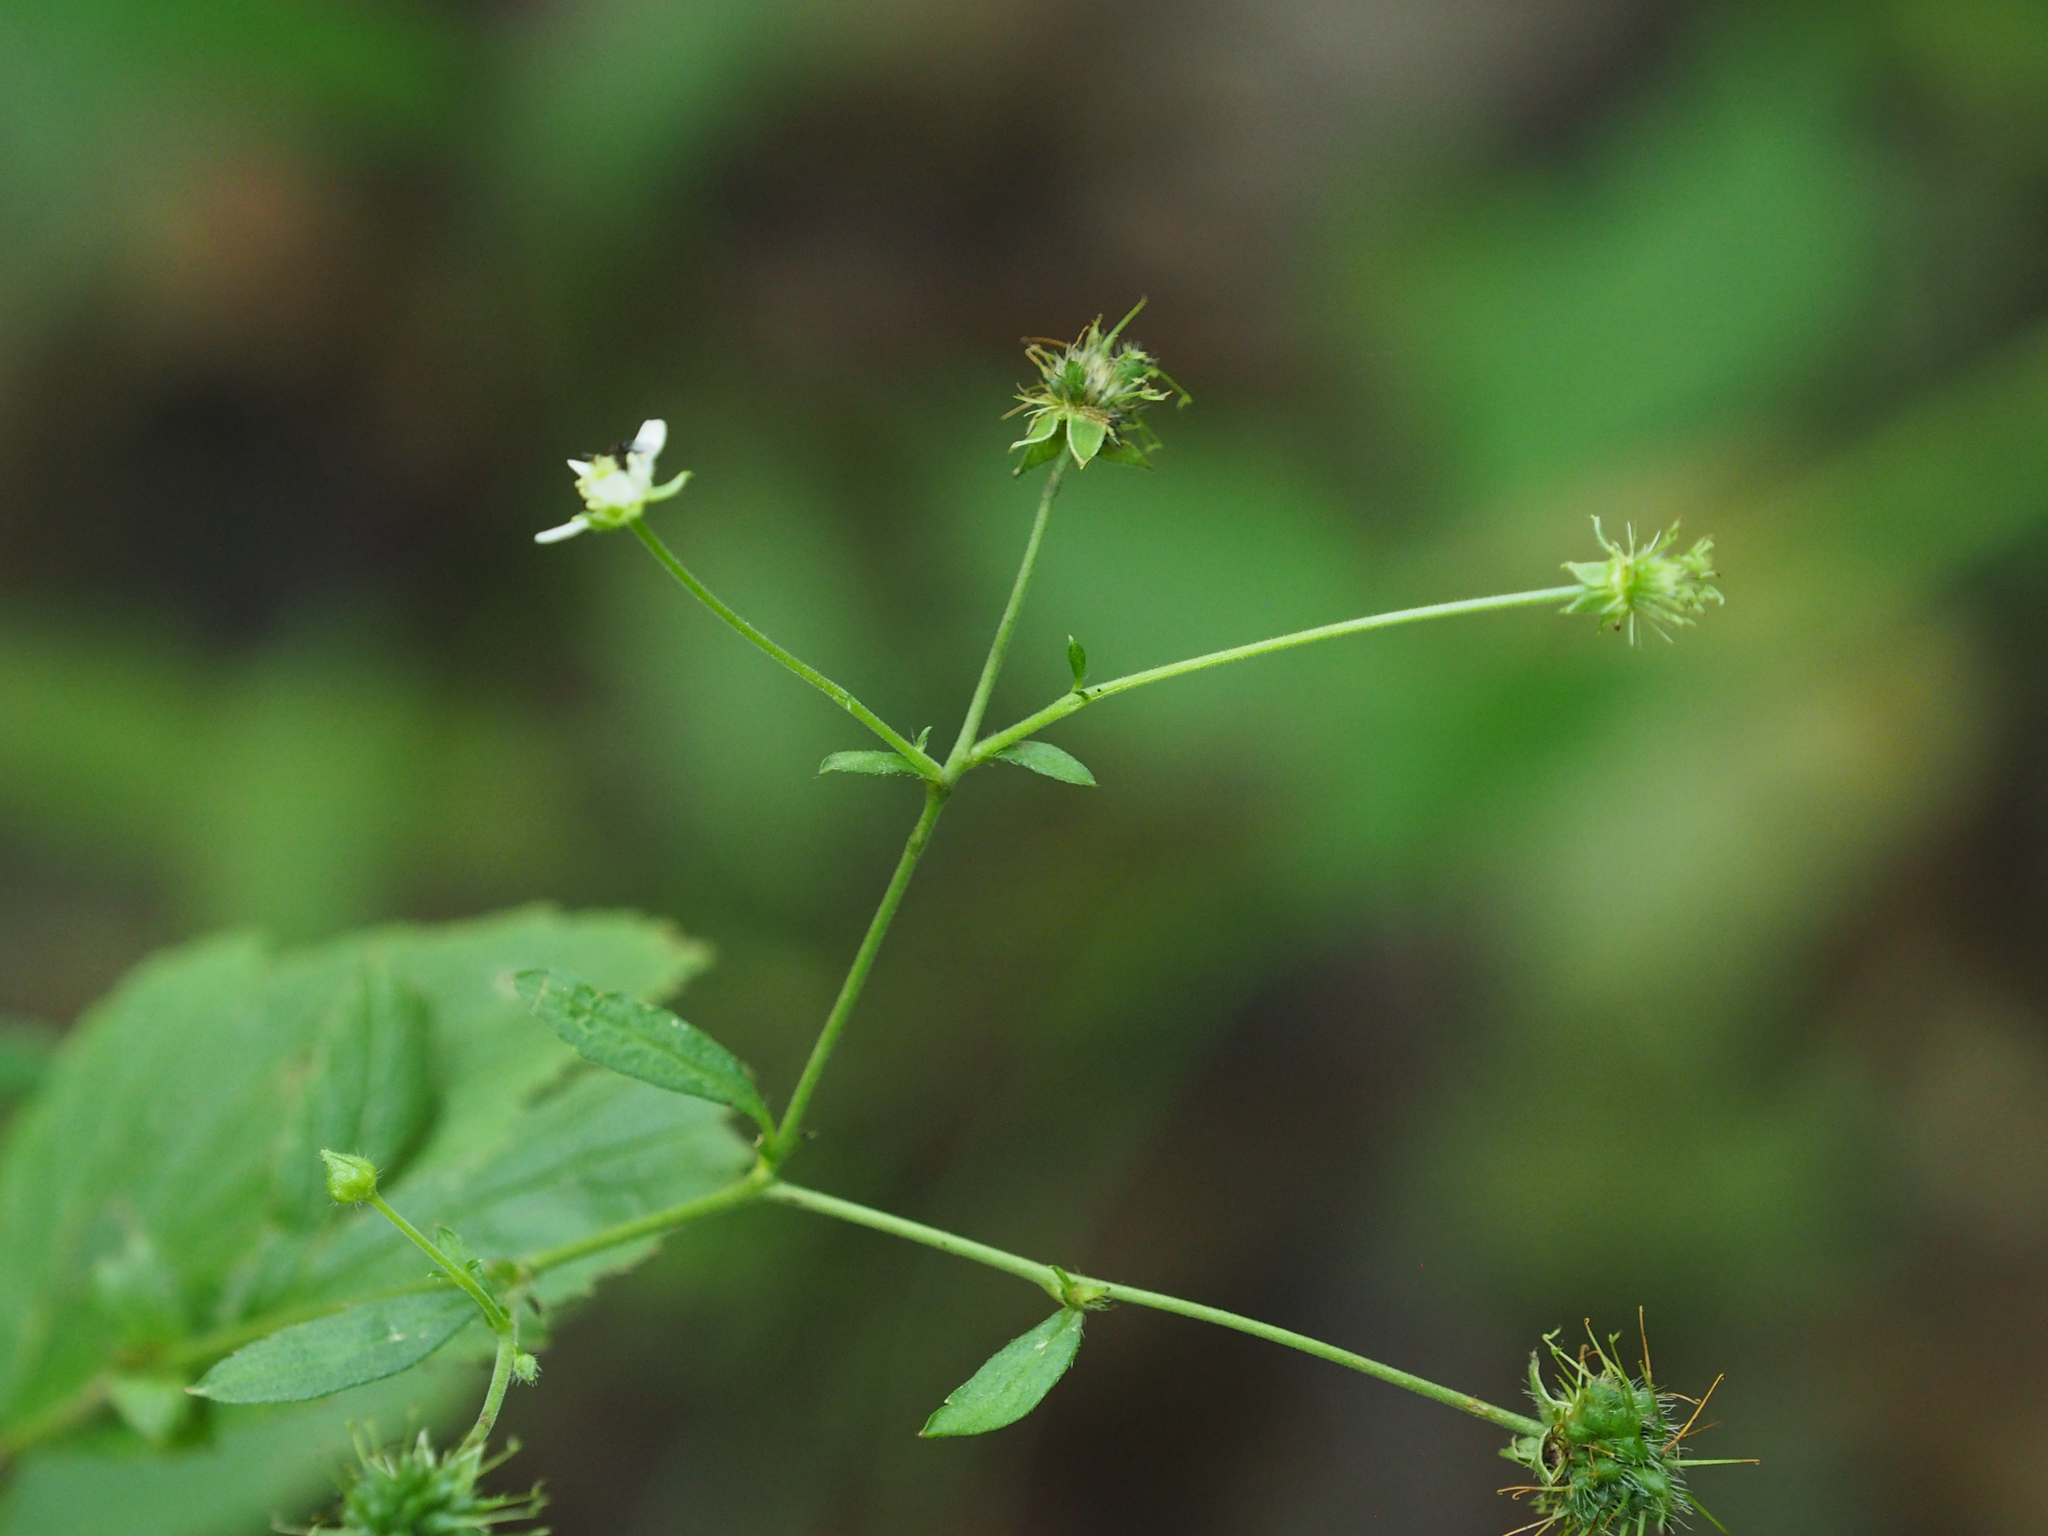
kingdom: Plantae
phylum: Tracheophyta
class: Magnoliopsida
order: Rosales
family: Rosaceae
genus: Geum
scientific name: Geum canadense
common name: White avens
